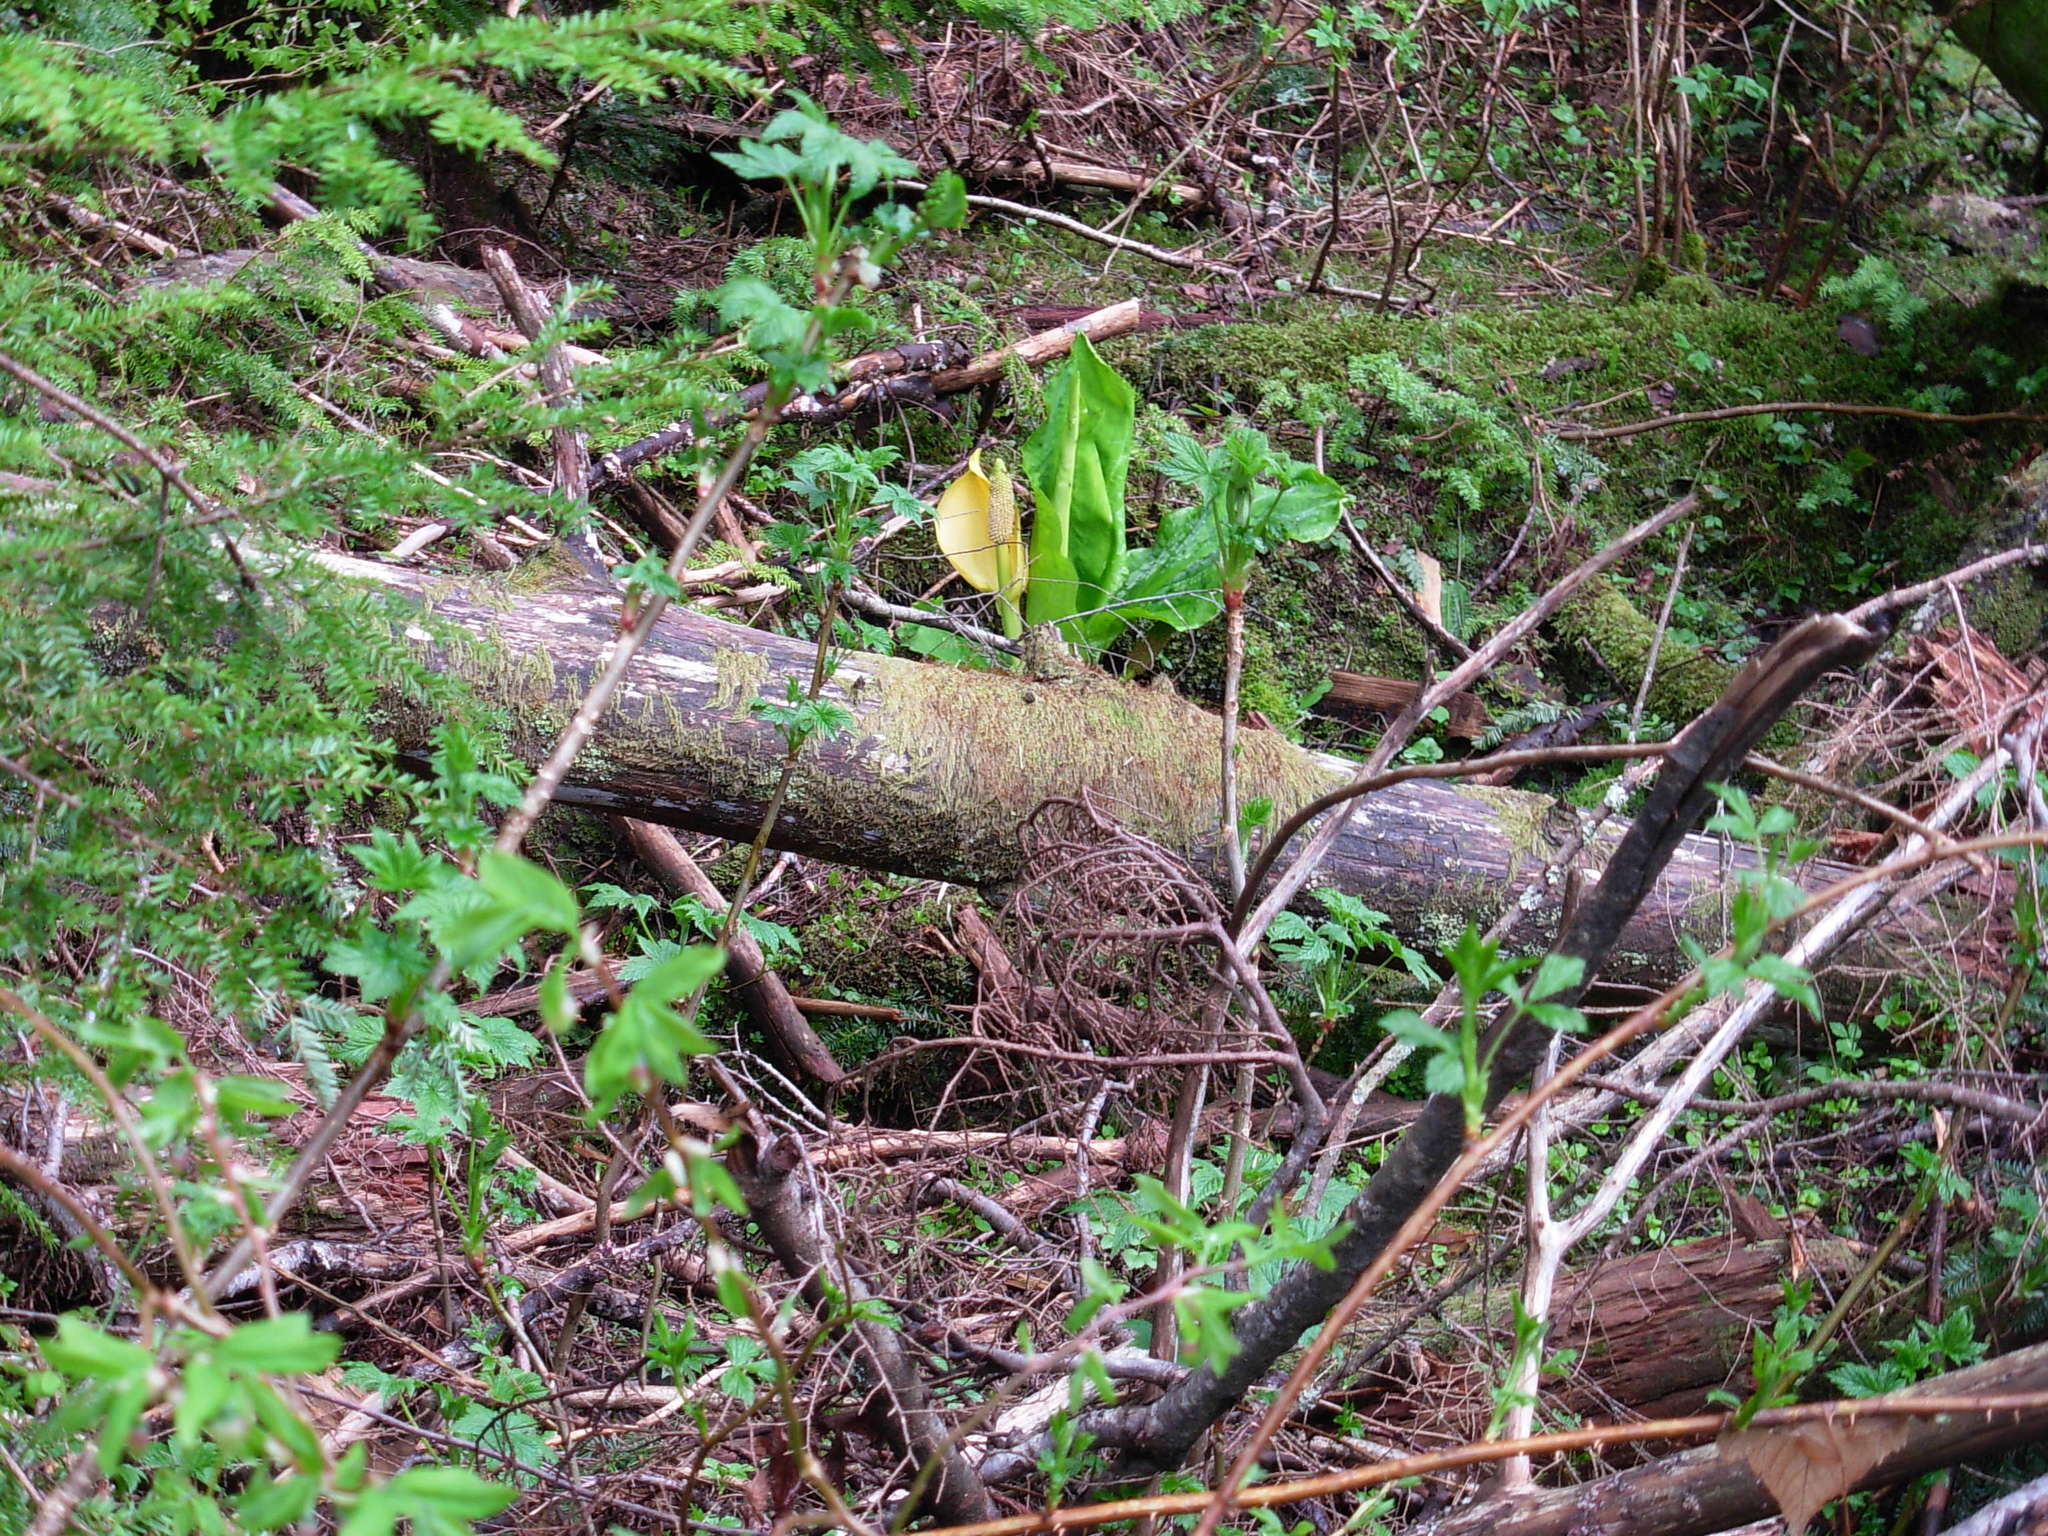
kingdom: Plantae
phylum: Tracheophyta
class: Liliopsida
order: Alismatales
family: Araceae
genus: Lysichiton
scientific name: Lysichiton americanus
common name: American skunk cabbage
